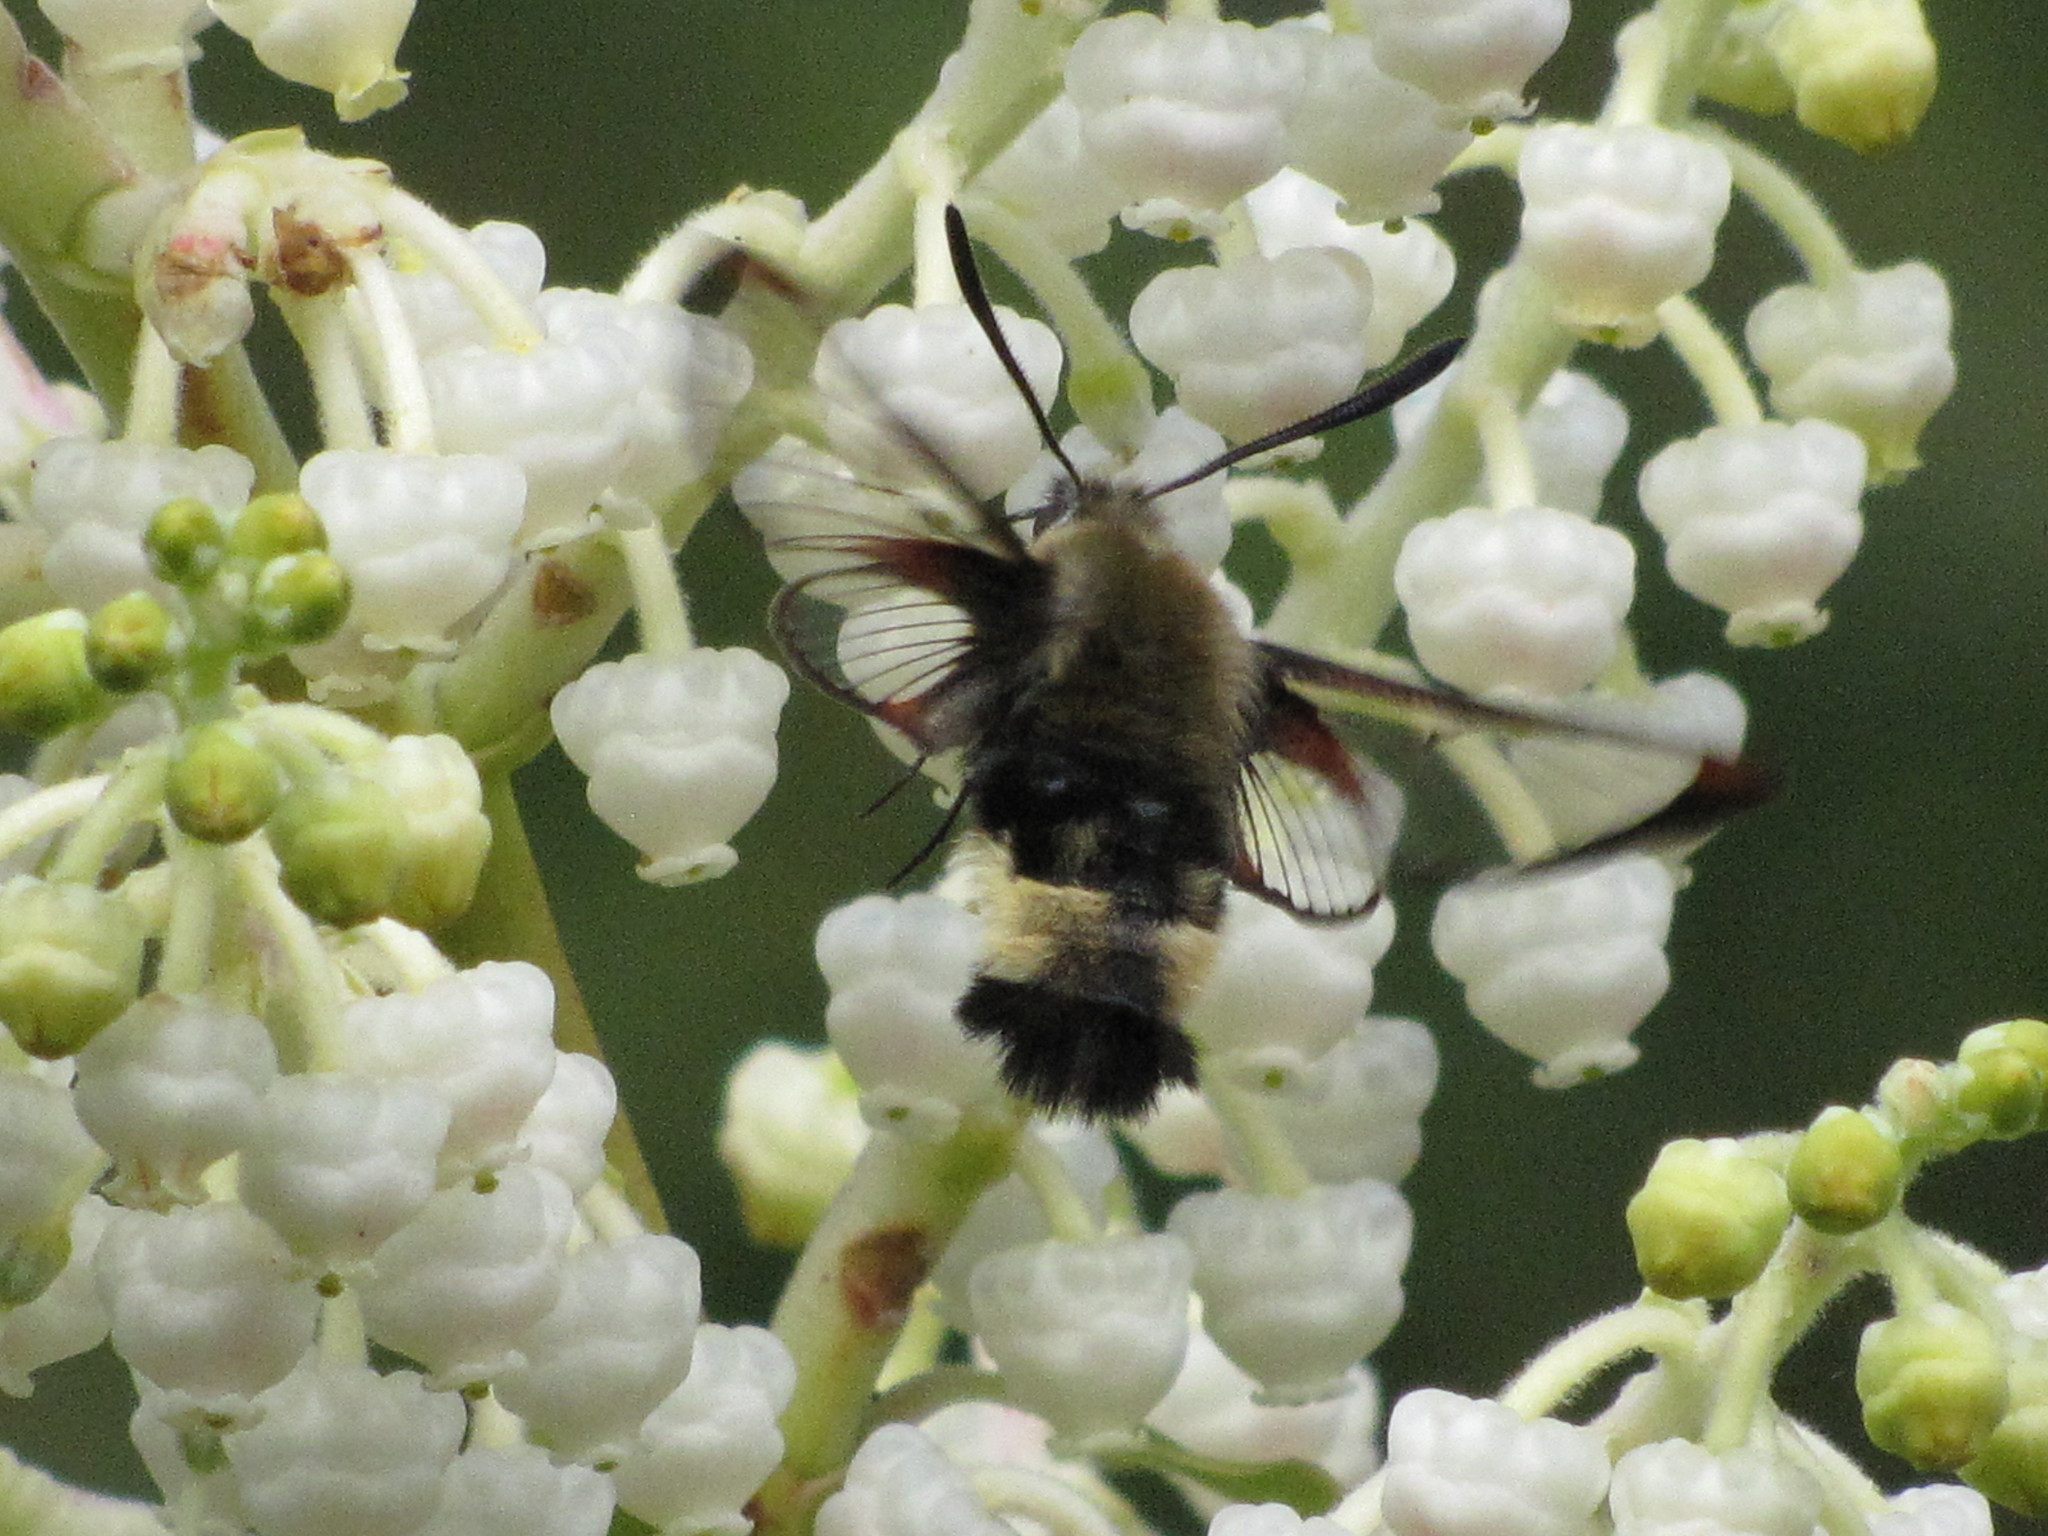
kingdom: Animalia
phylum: Arthropoda
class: Insecta
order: Lepidoptera
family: Sphingidae
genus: Hemaris
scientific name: Hemaris thetis
